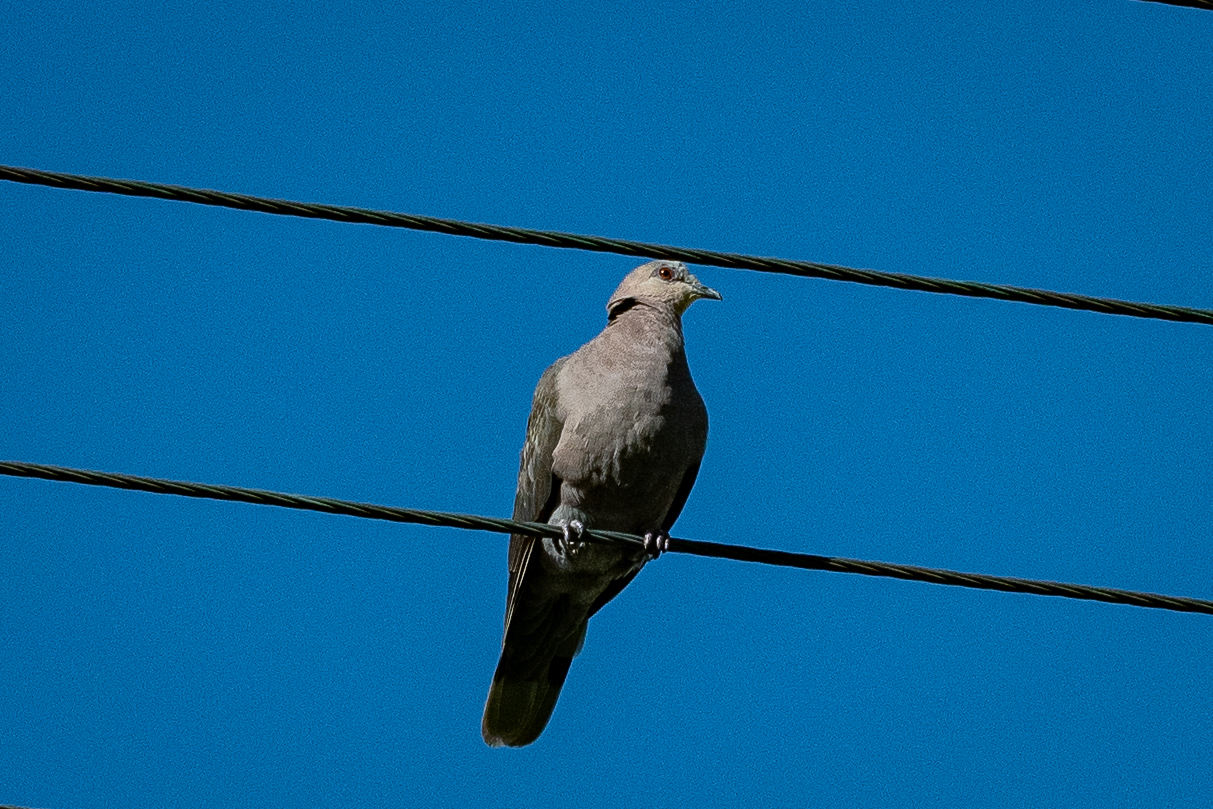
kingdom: Animalia
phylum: Chordata
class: Aves
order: Columbiformes
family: Columbidae
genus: Streptopelia
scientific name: Streptopelia semitorquata
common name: Red-eyed dove
